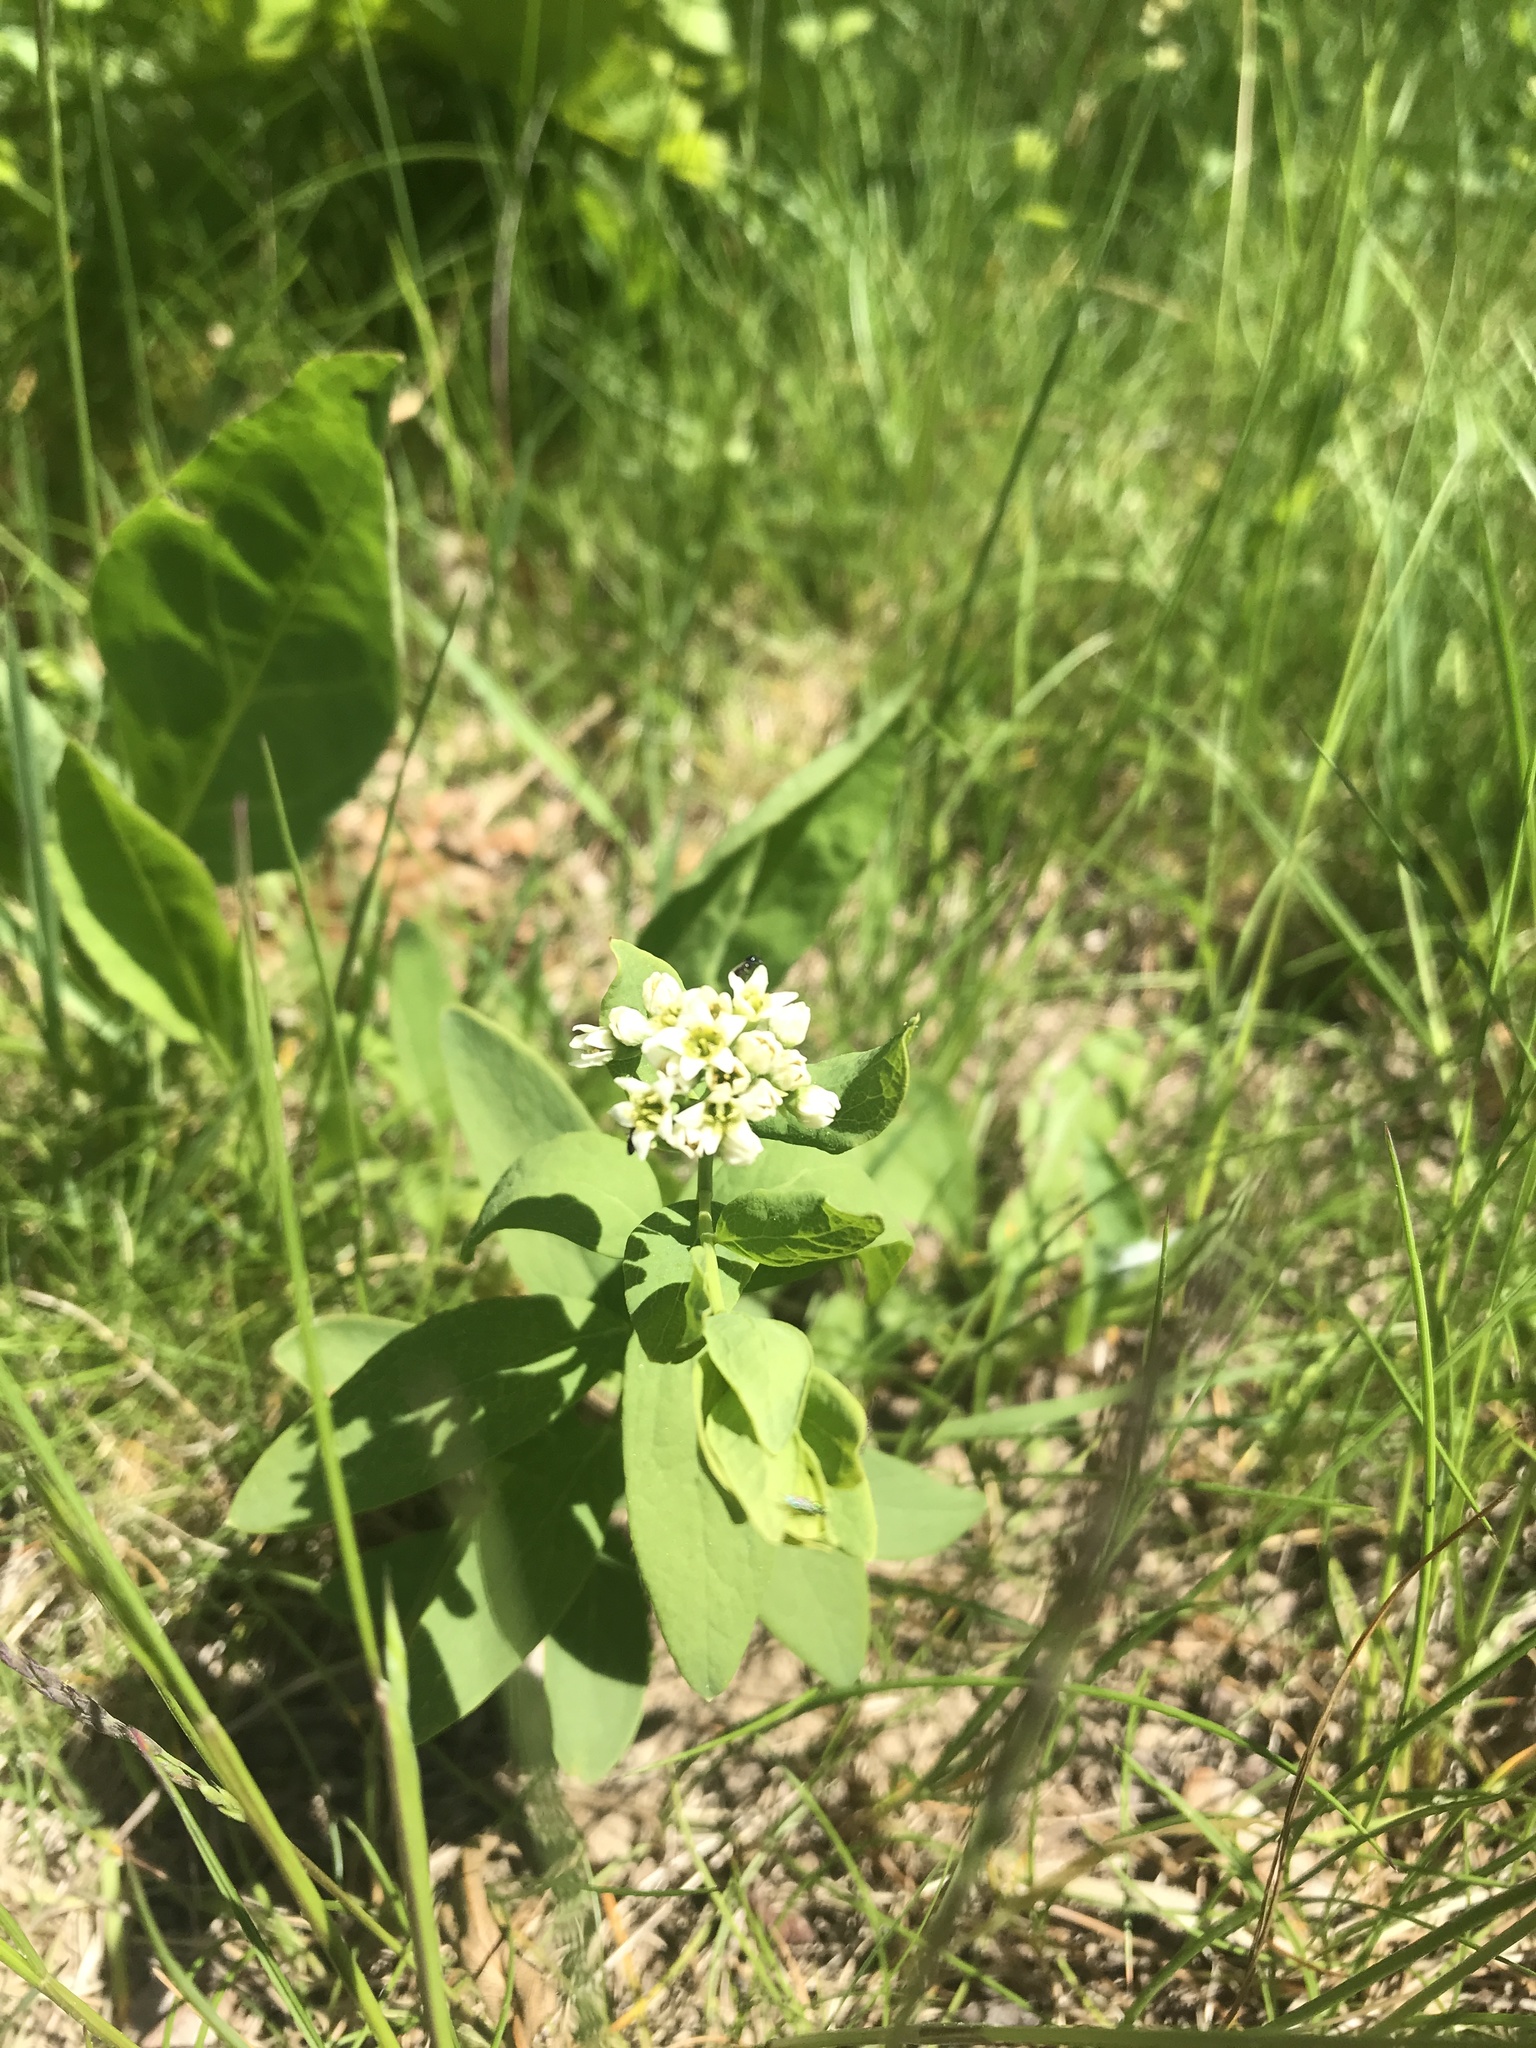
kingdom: Plantae
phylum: Tracheophyta
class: Magnoliopsida
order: Santalales
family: Comandraceae
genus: Comandra
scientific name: Comandra umbellata
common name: Bastard toadflax
